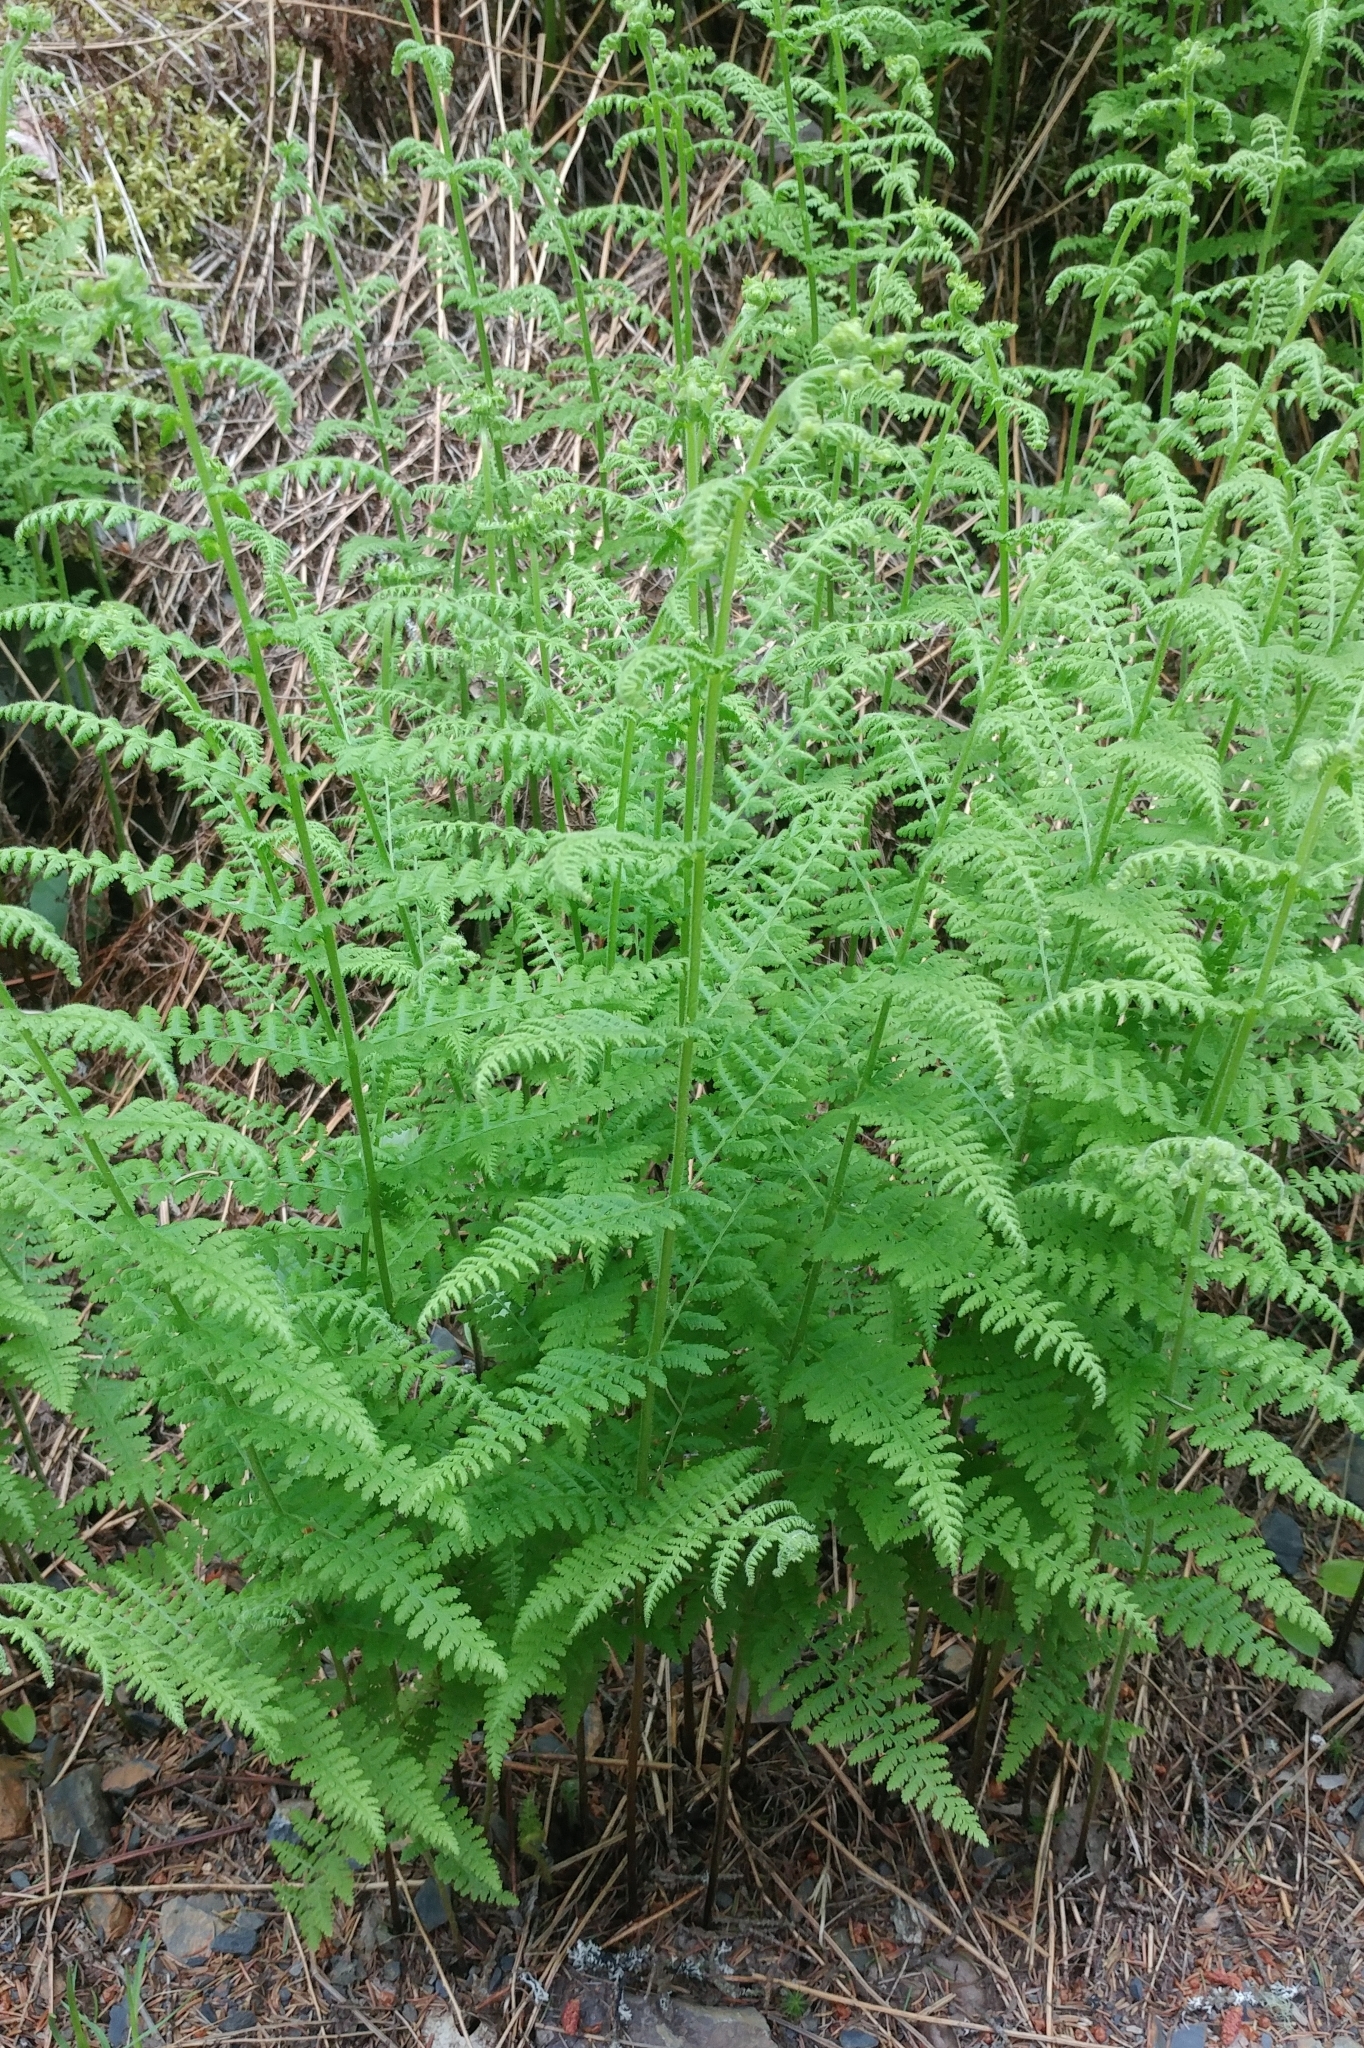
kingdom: Plantae
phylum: Tracheophyta
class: Polypodiopsida
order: Polypodiales
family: Dennstaedtiaceae
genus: Sitobolium
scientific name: Sitobolium punctilobum
